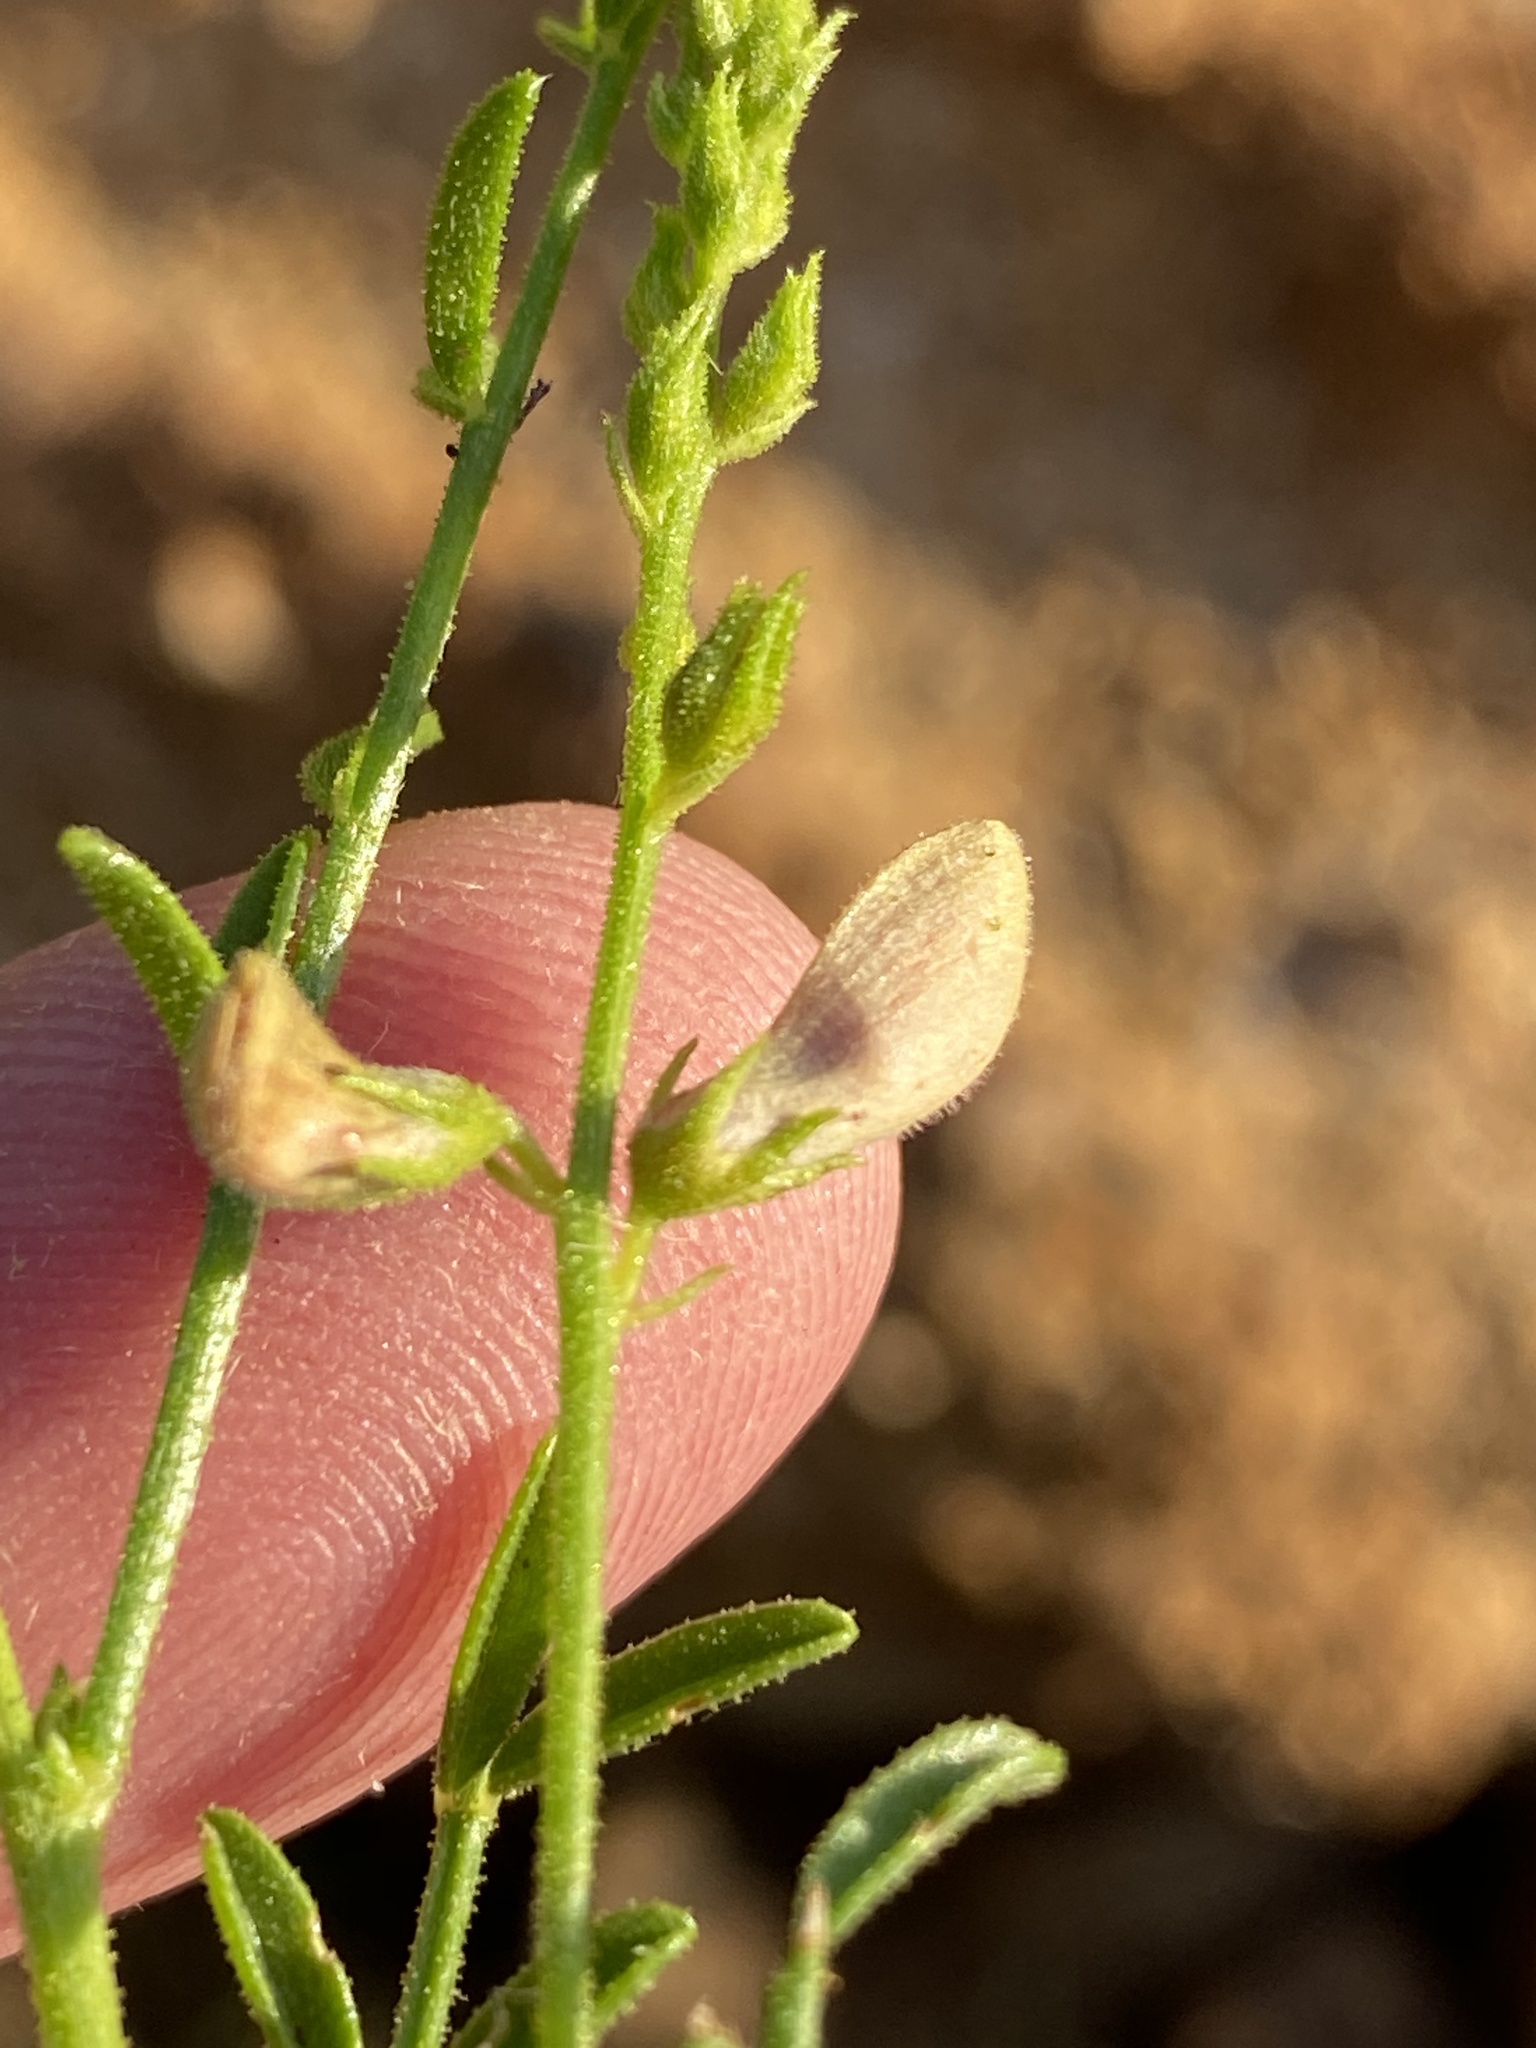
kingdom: Plantae
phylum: Tracheophyta
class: Magnoliopsida
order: Fabales
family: Fabaceae
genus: Indigofera
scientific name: Indigofera heterotricha
